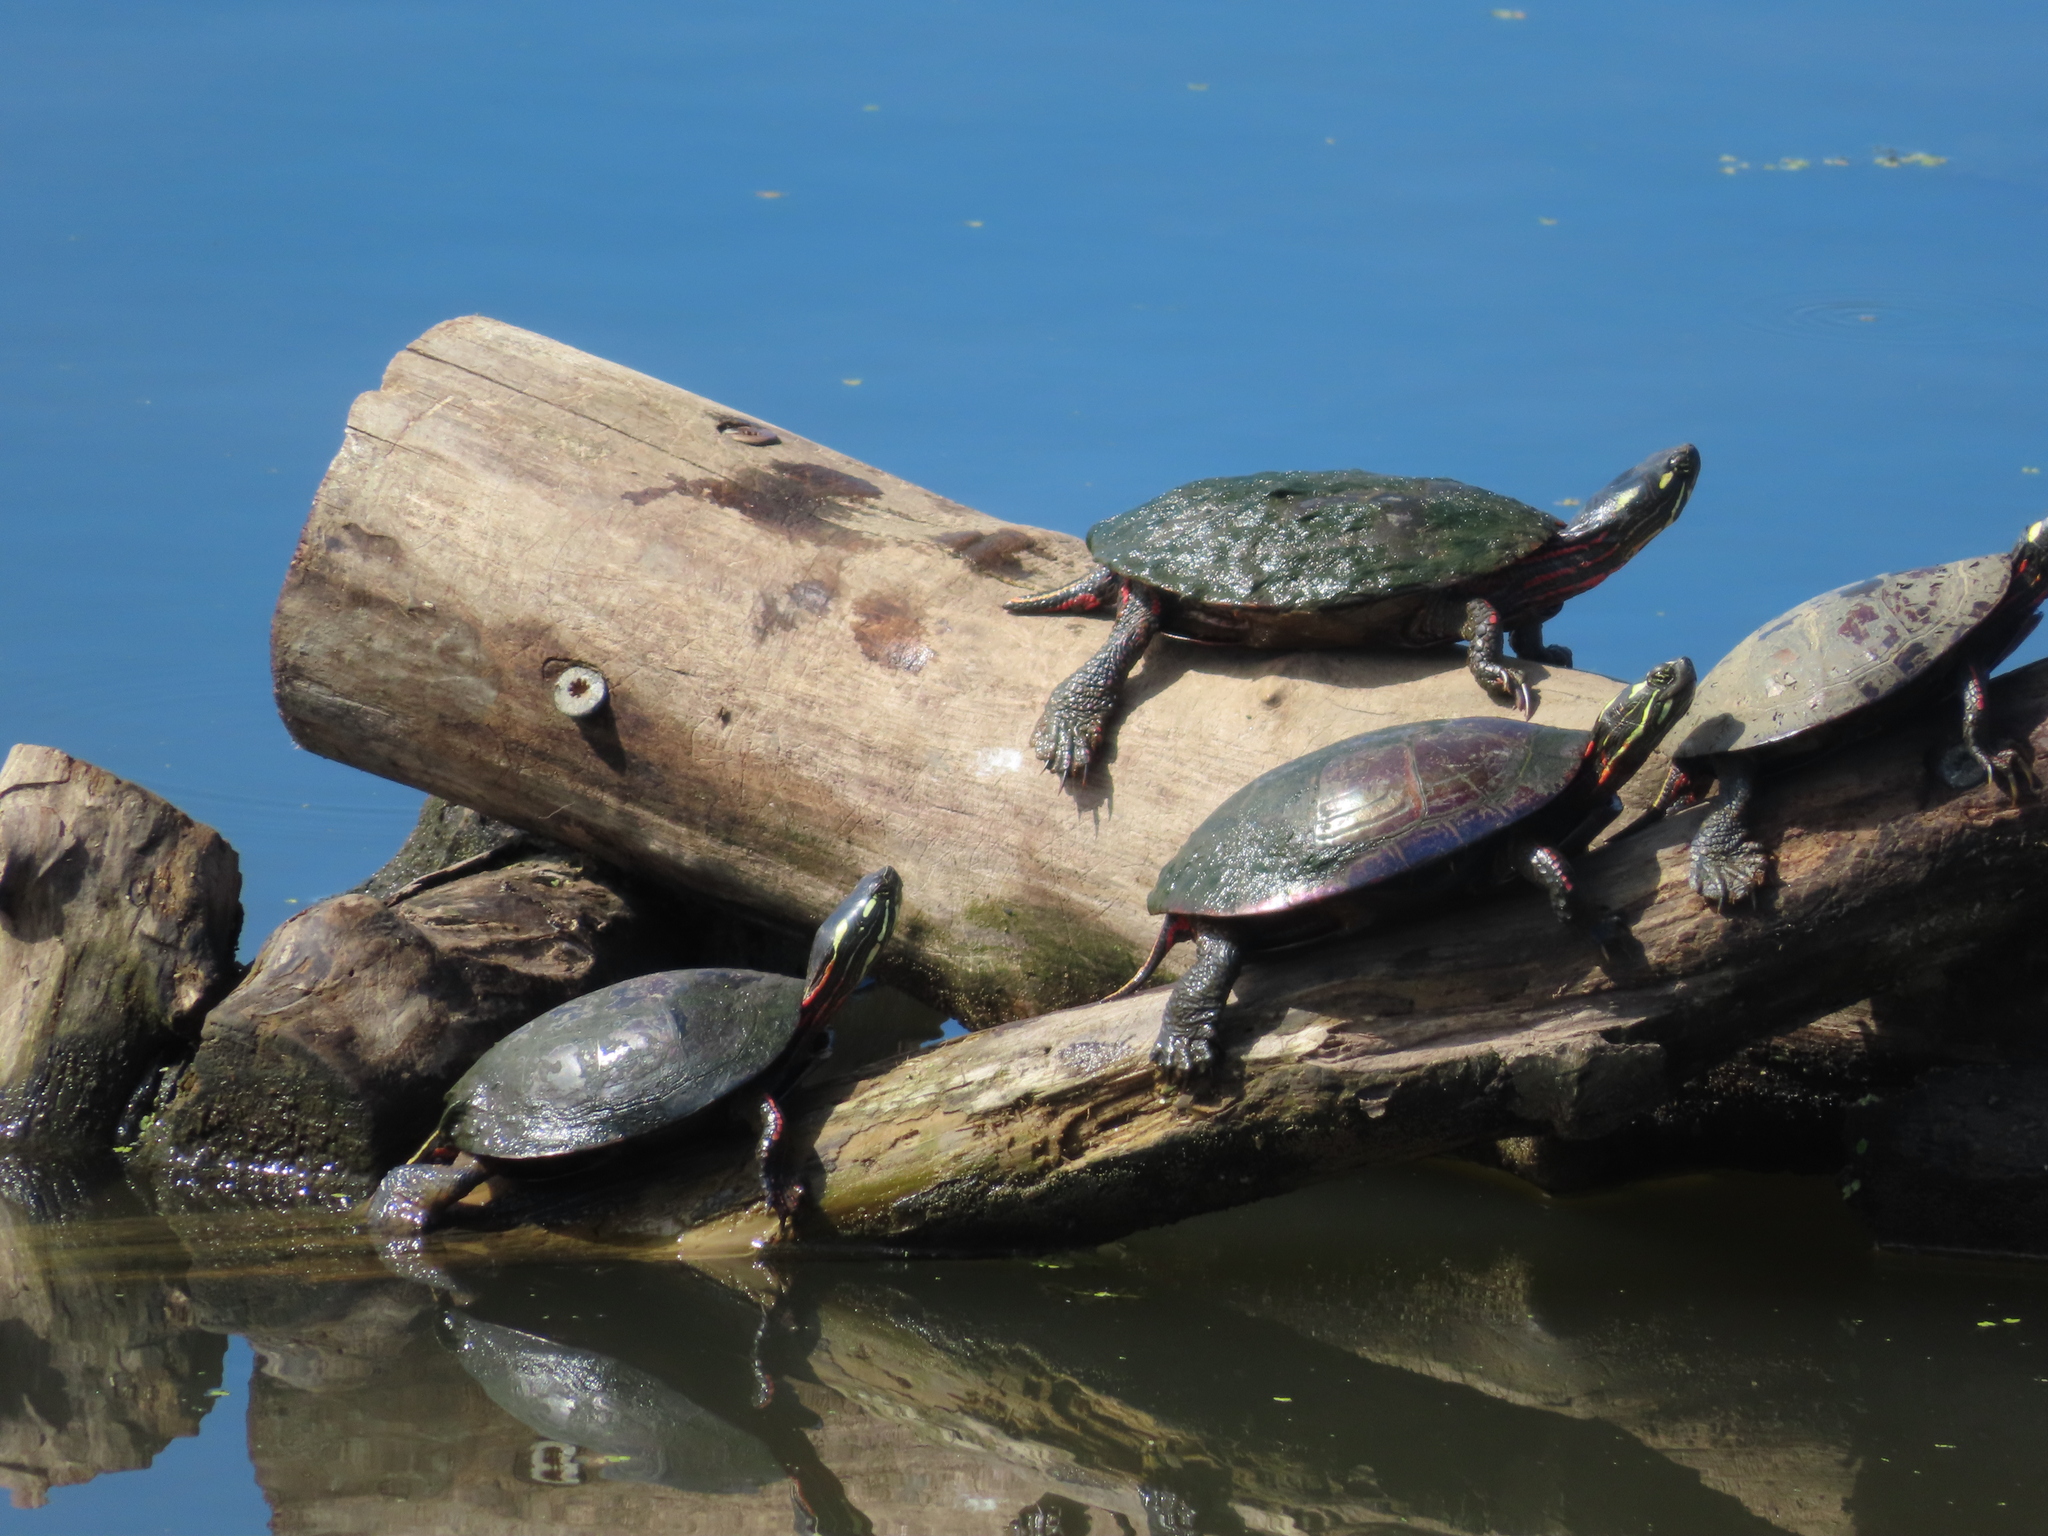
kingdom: Animalia
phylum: Chordata
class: Testudines
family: Emydidae
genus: Chrysemys
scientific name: Chrysemys picta
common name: Painted turtle
